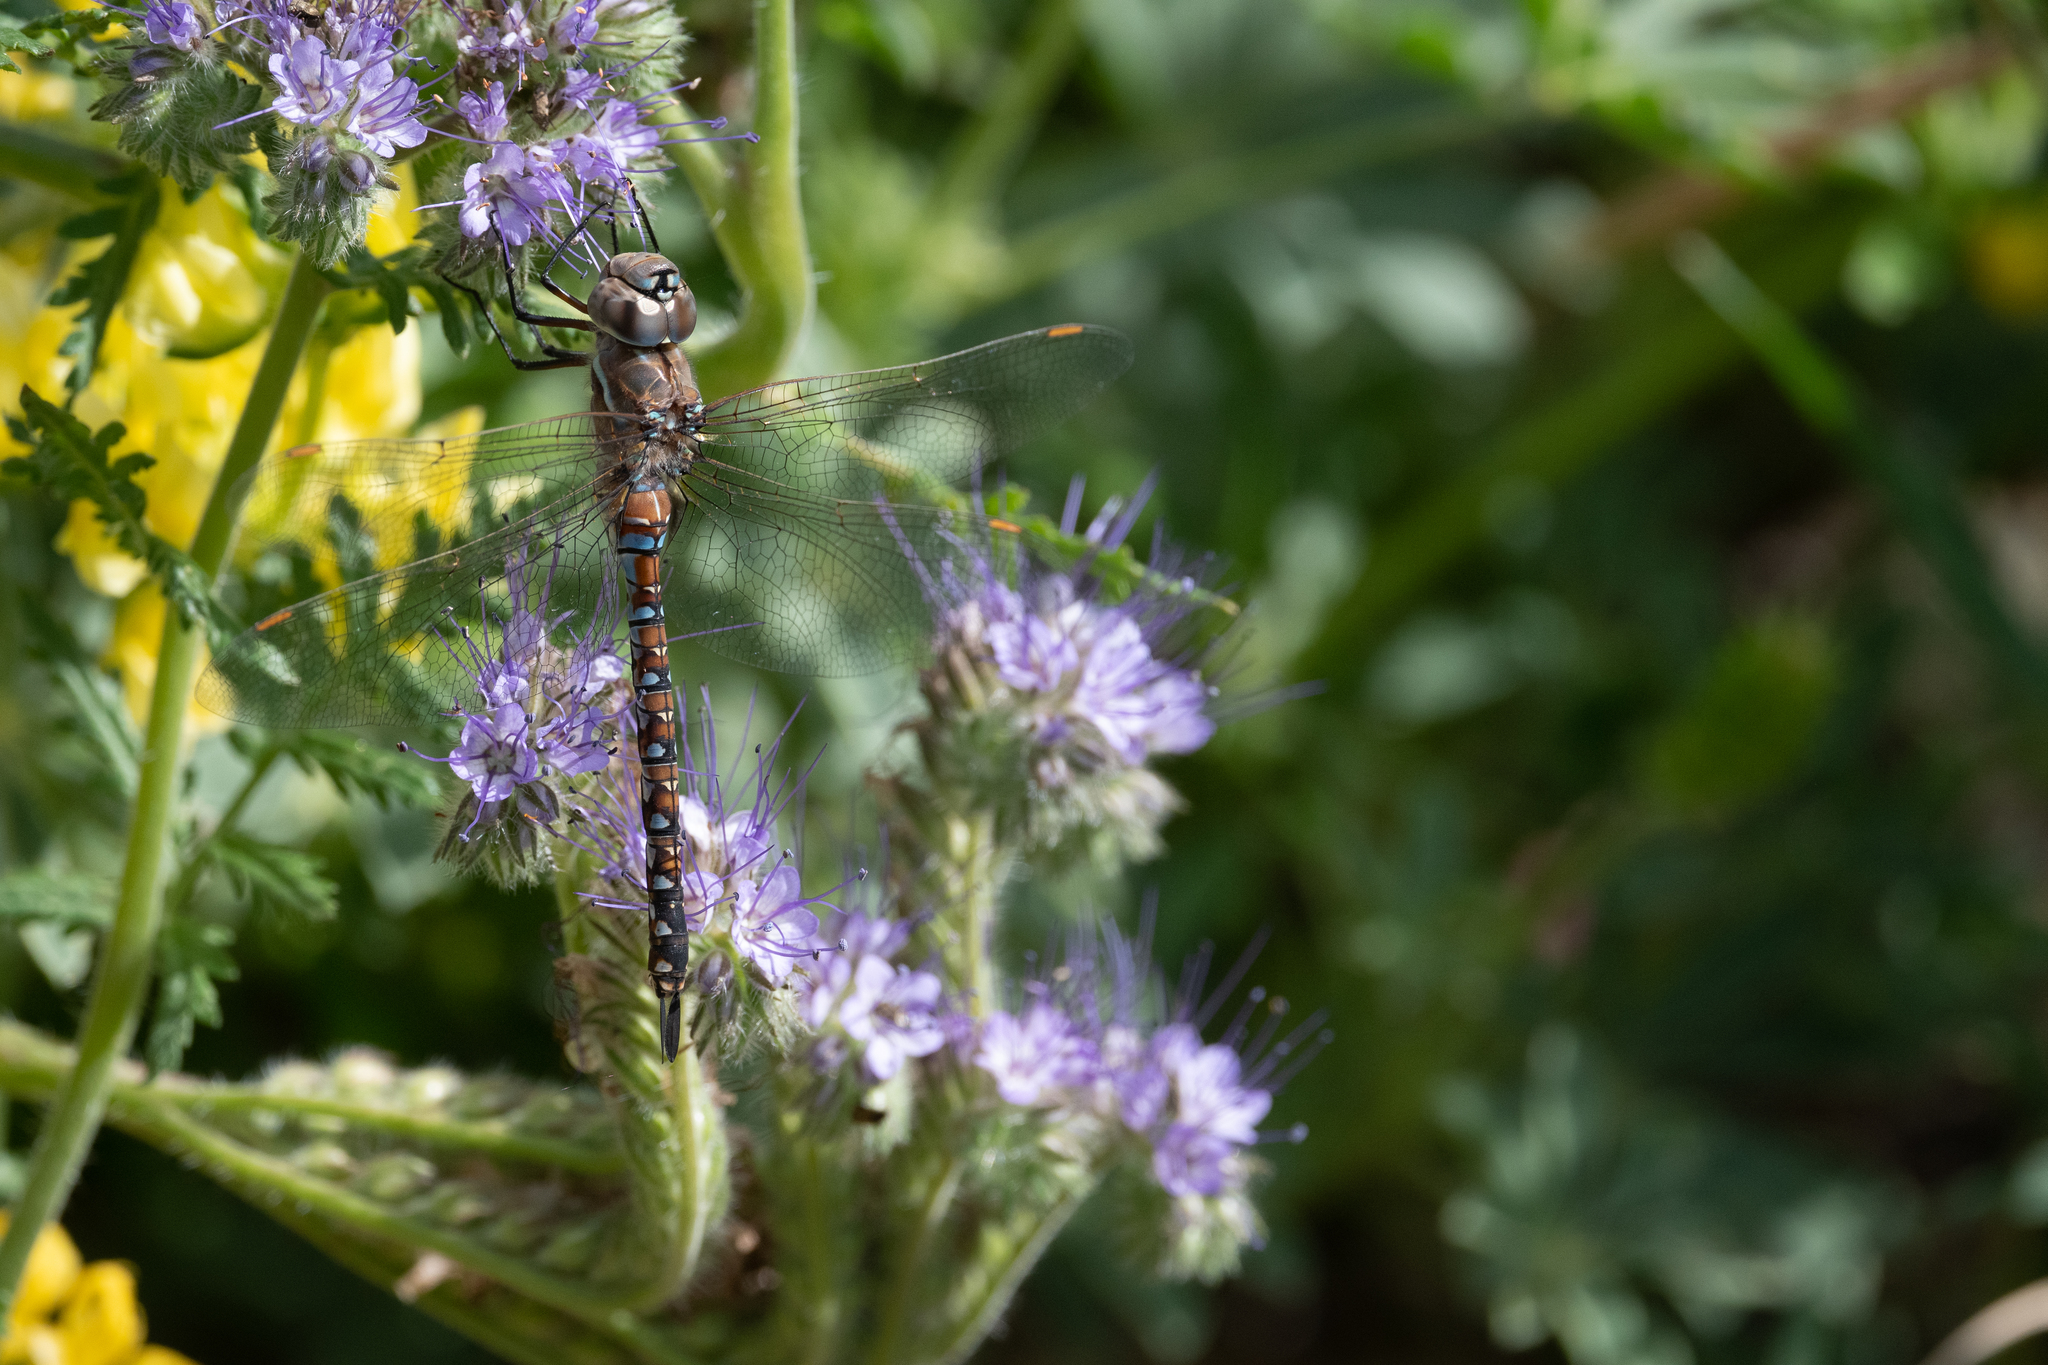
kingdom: Animalia
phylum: Arthropoda
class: Insecta
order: Odonata
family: Aeshnidae
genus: Rhionaeschna
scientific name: Rhionaeschna multicolor
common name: Blue-eyed darner
